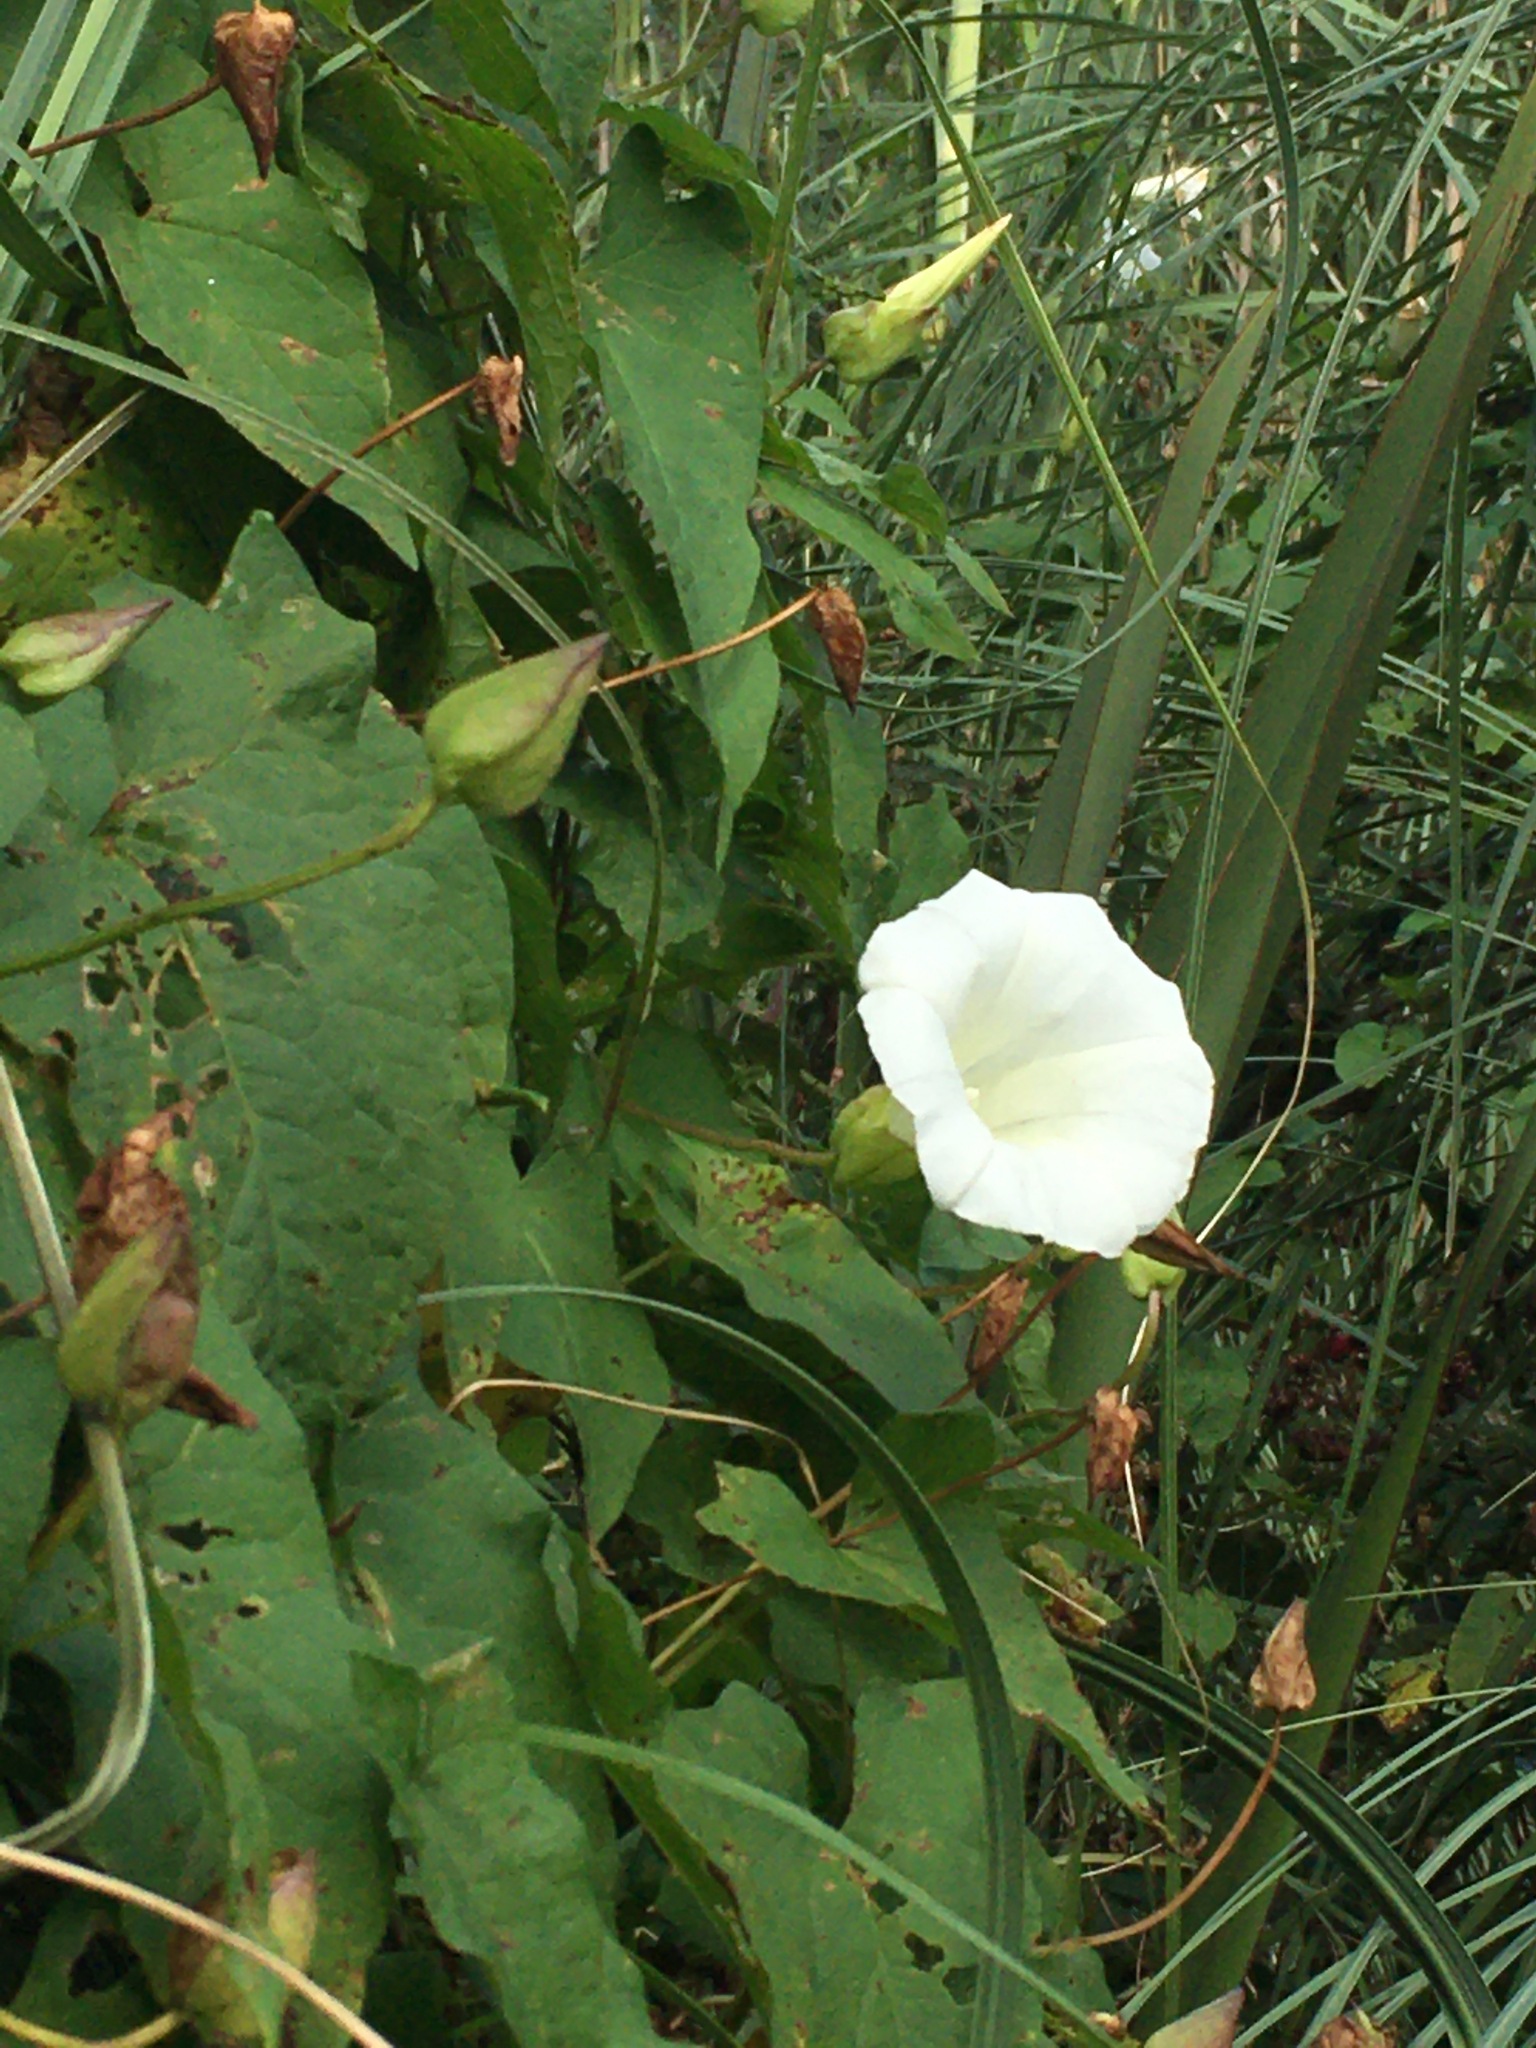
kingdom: Plantae
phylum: Tracheophyta
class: Magnoliopsida
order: Solanales
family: Convolvulaceae
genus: Calystegia
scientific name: Calystegia silvatica
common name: Large bindweed
